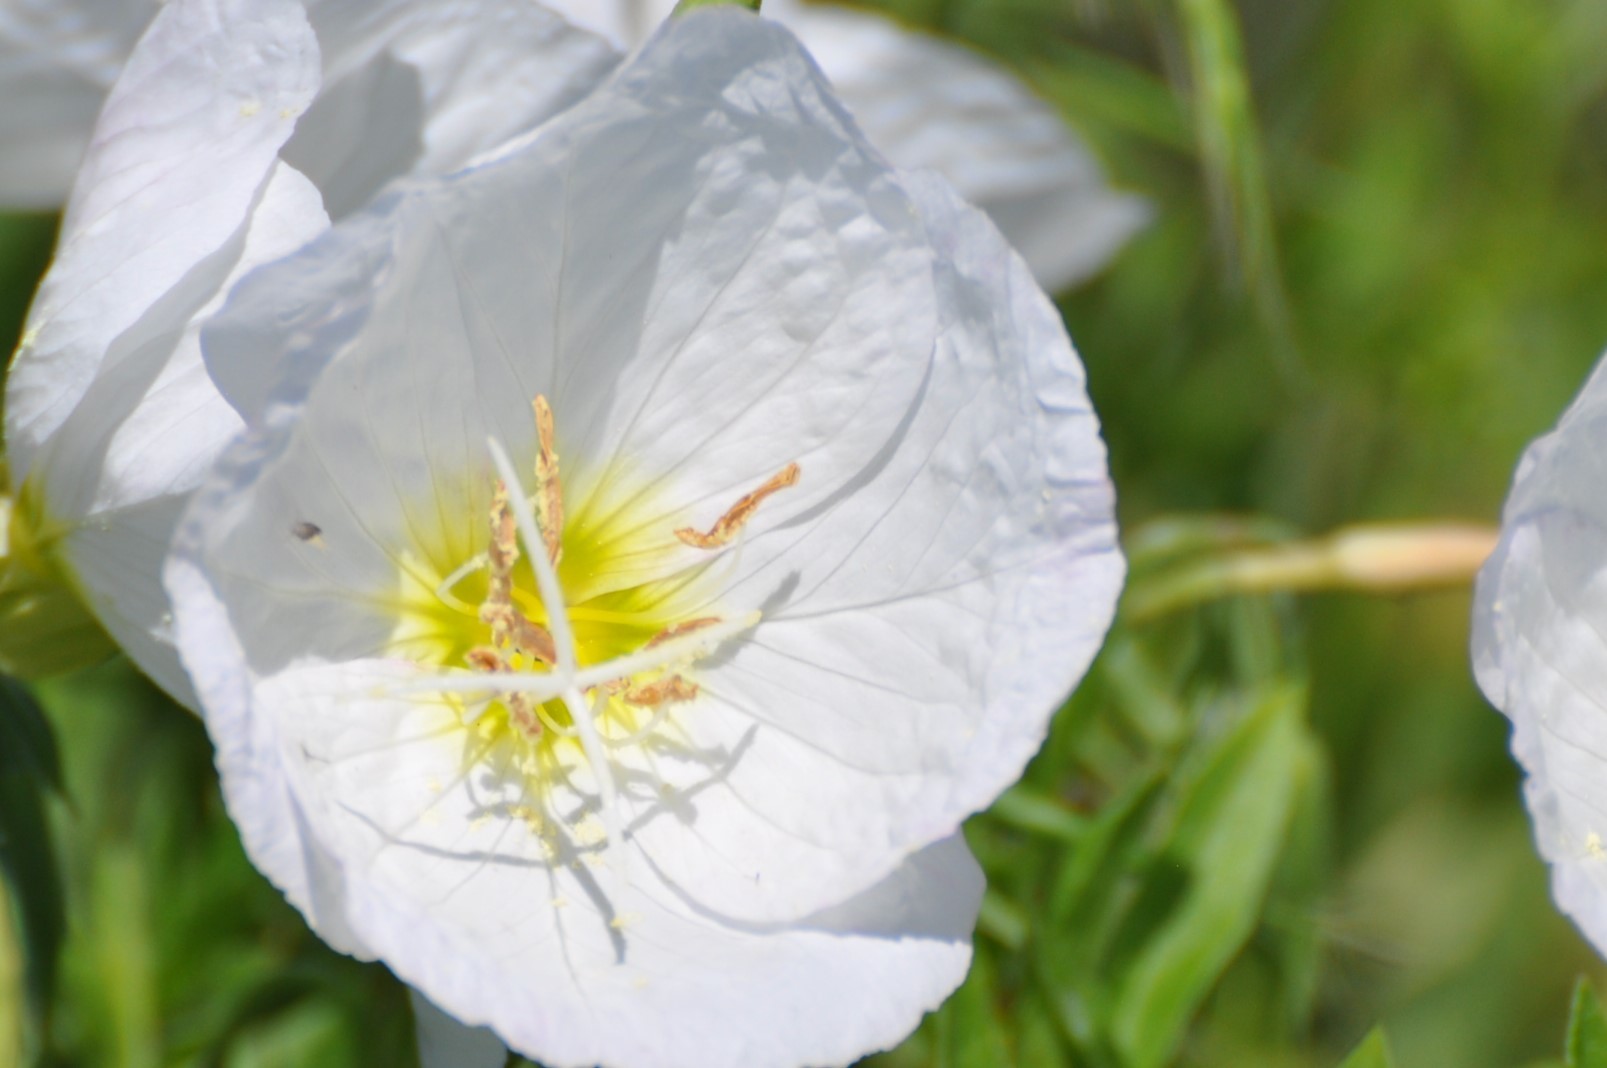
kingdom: Plantae
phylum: Tracheophyta
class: Magnoliopsida
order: Myrtales
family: Onagraceae
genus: Oenothera
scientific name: Oenothera speciosa
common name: White evening-primrose
